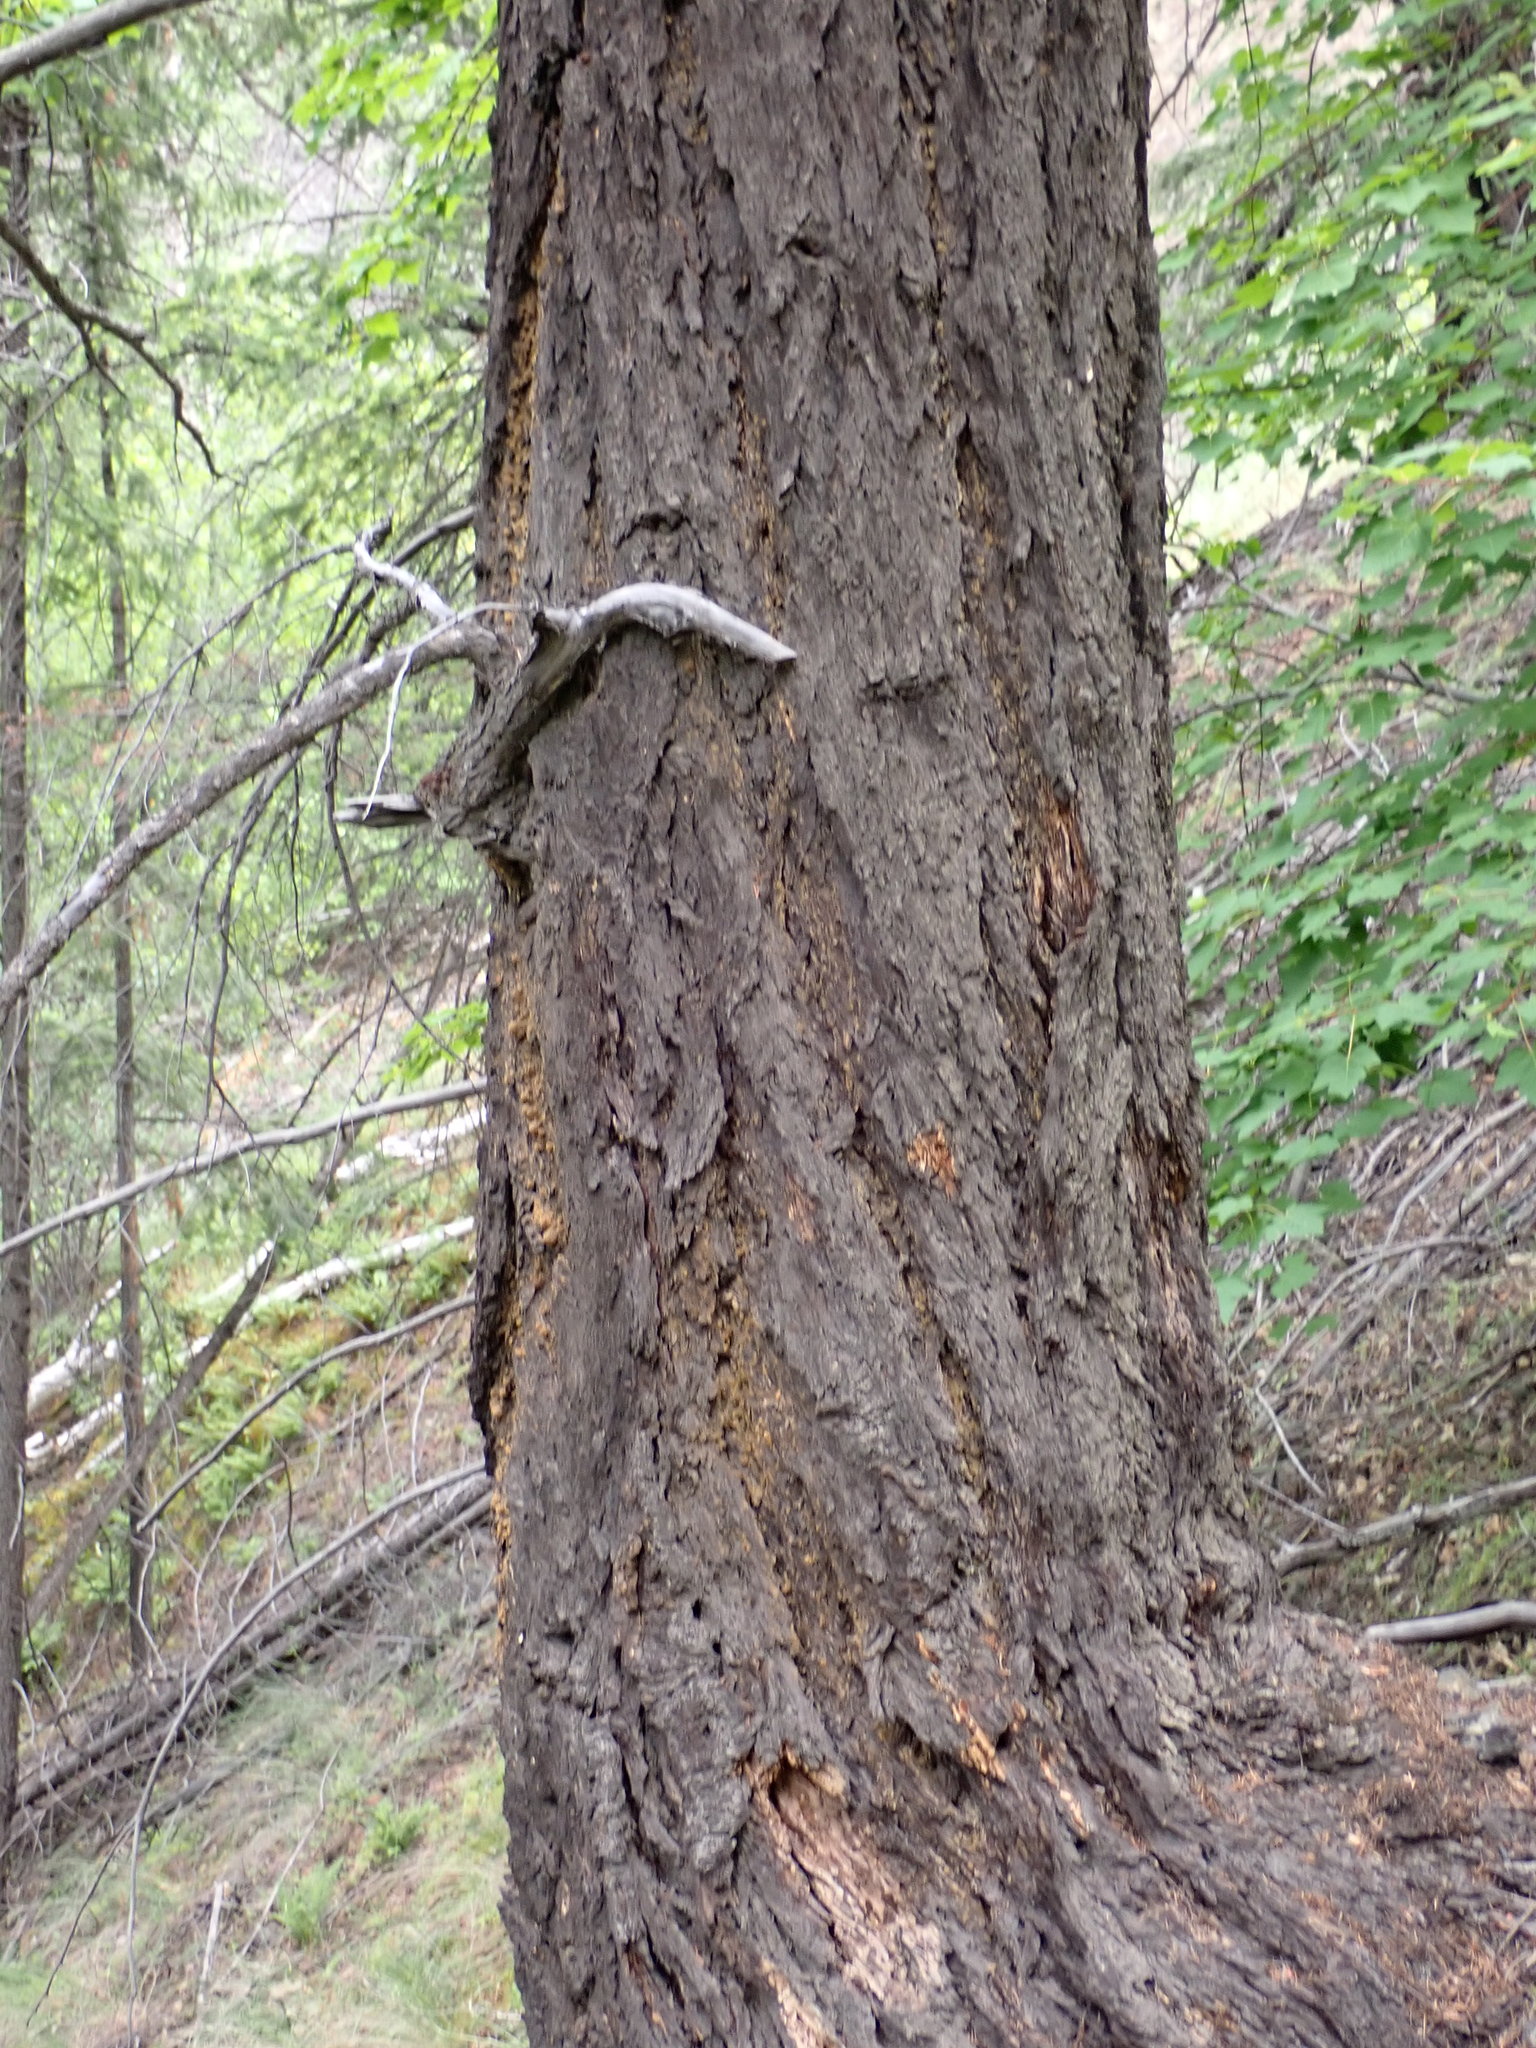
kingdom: Plantae
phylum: Tracheophyta
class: Pinopsida
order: Pinales
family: Pinaceae
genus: Pseudotsuga
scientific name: Pseudotsuga menziesii
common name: Douglas fir
